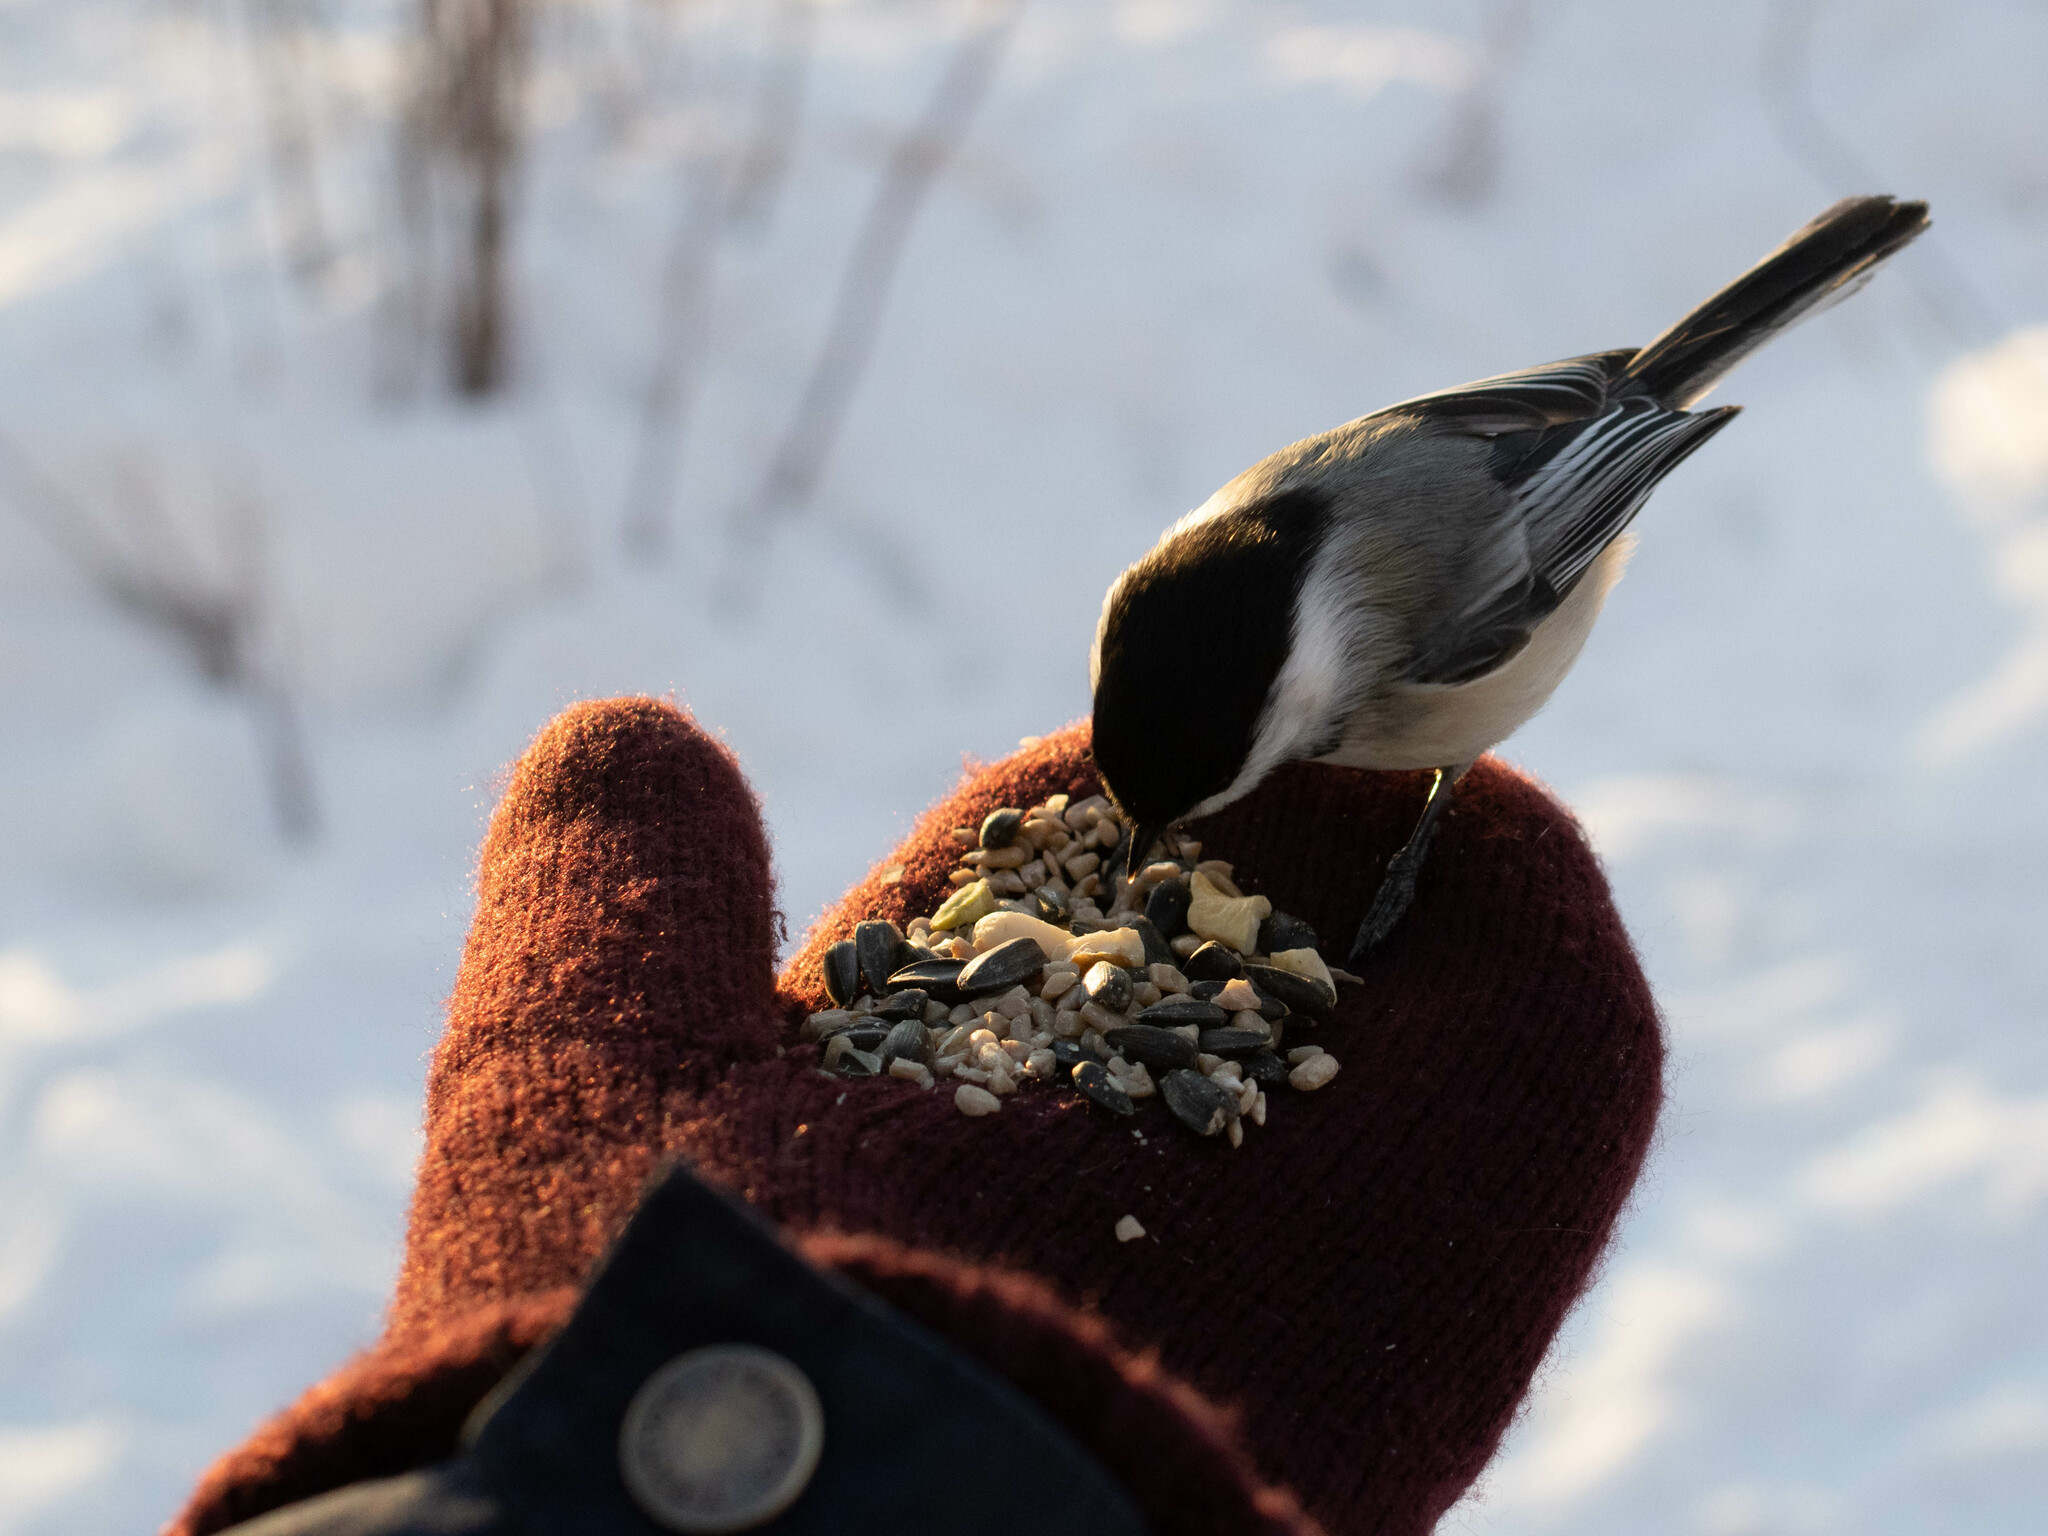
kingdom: Animalia
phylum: Chordata
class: Aves
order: Passeriformes
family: Paridae
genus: Poecile
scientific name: Poecile atricapillus
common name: Black-capped chickadee
